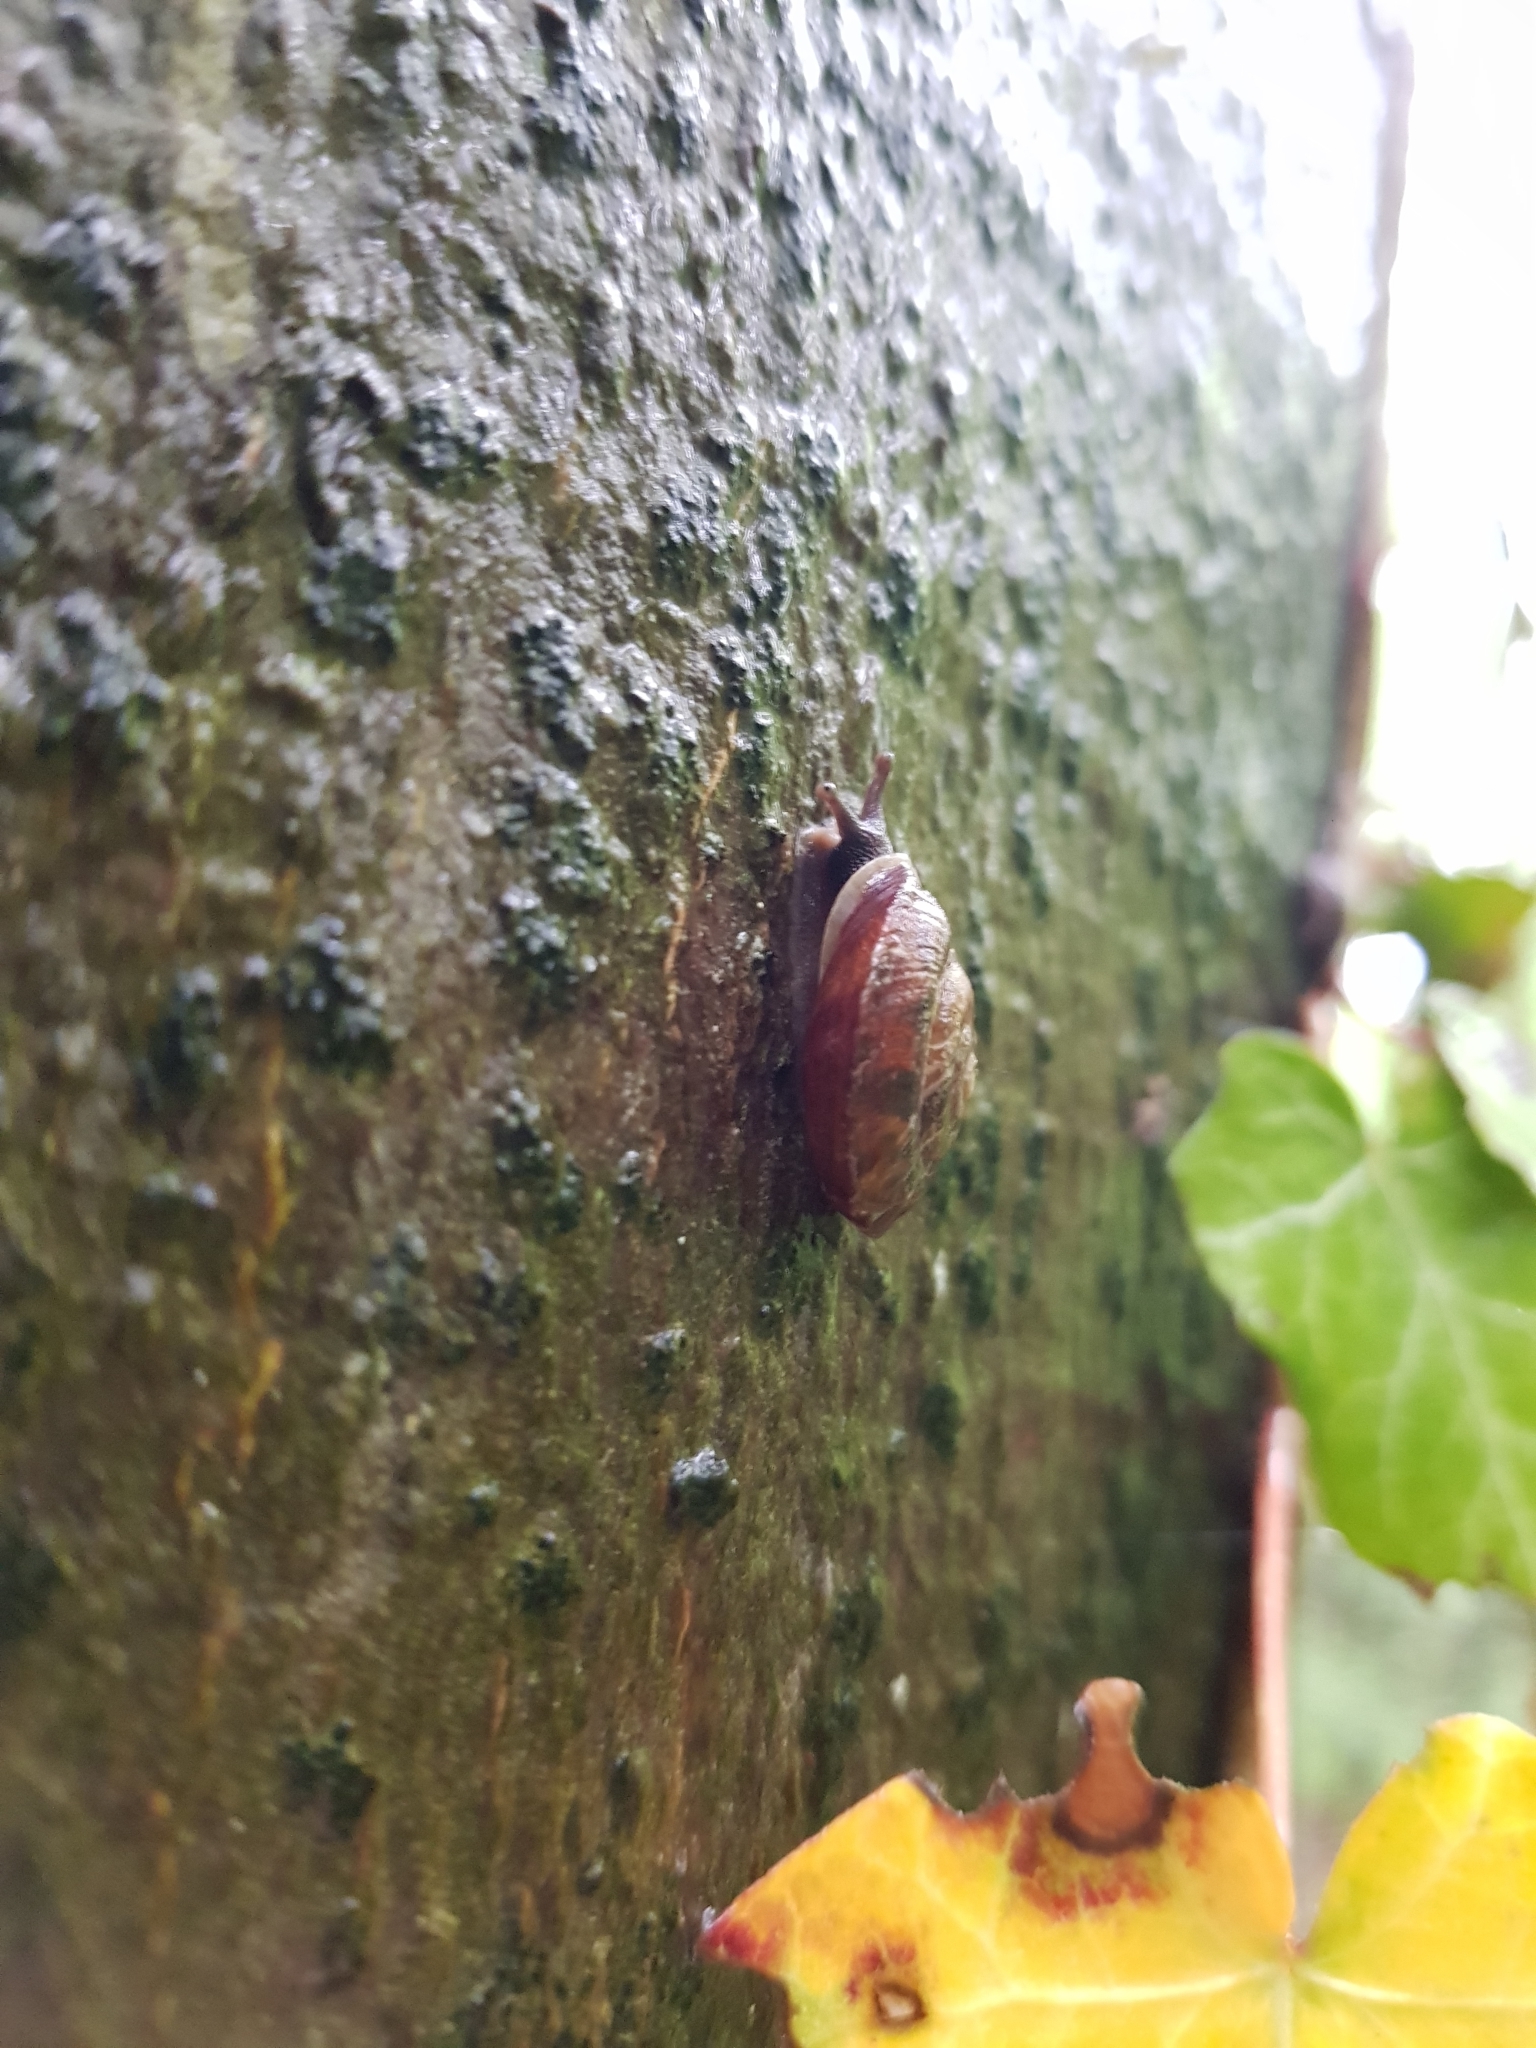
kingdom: Animalia
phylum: Mollusca
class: Gastropoda
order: Stylommatophora
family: Helicidae
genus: Helicigona
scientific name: Helicigona lapicida
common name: Lapidary snail
